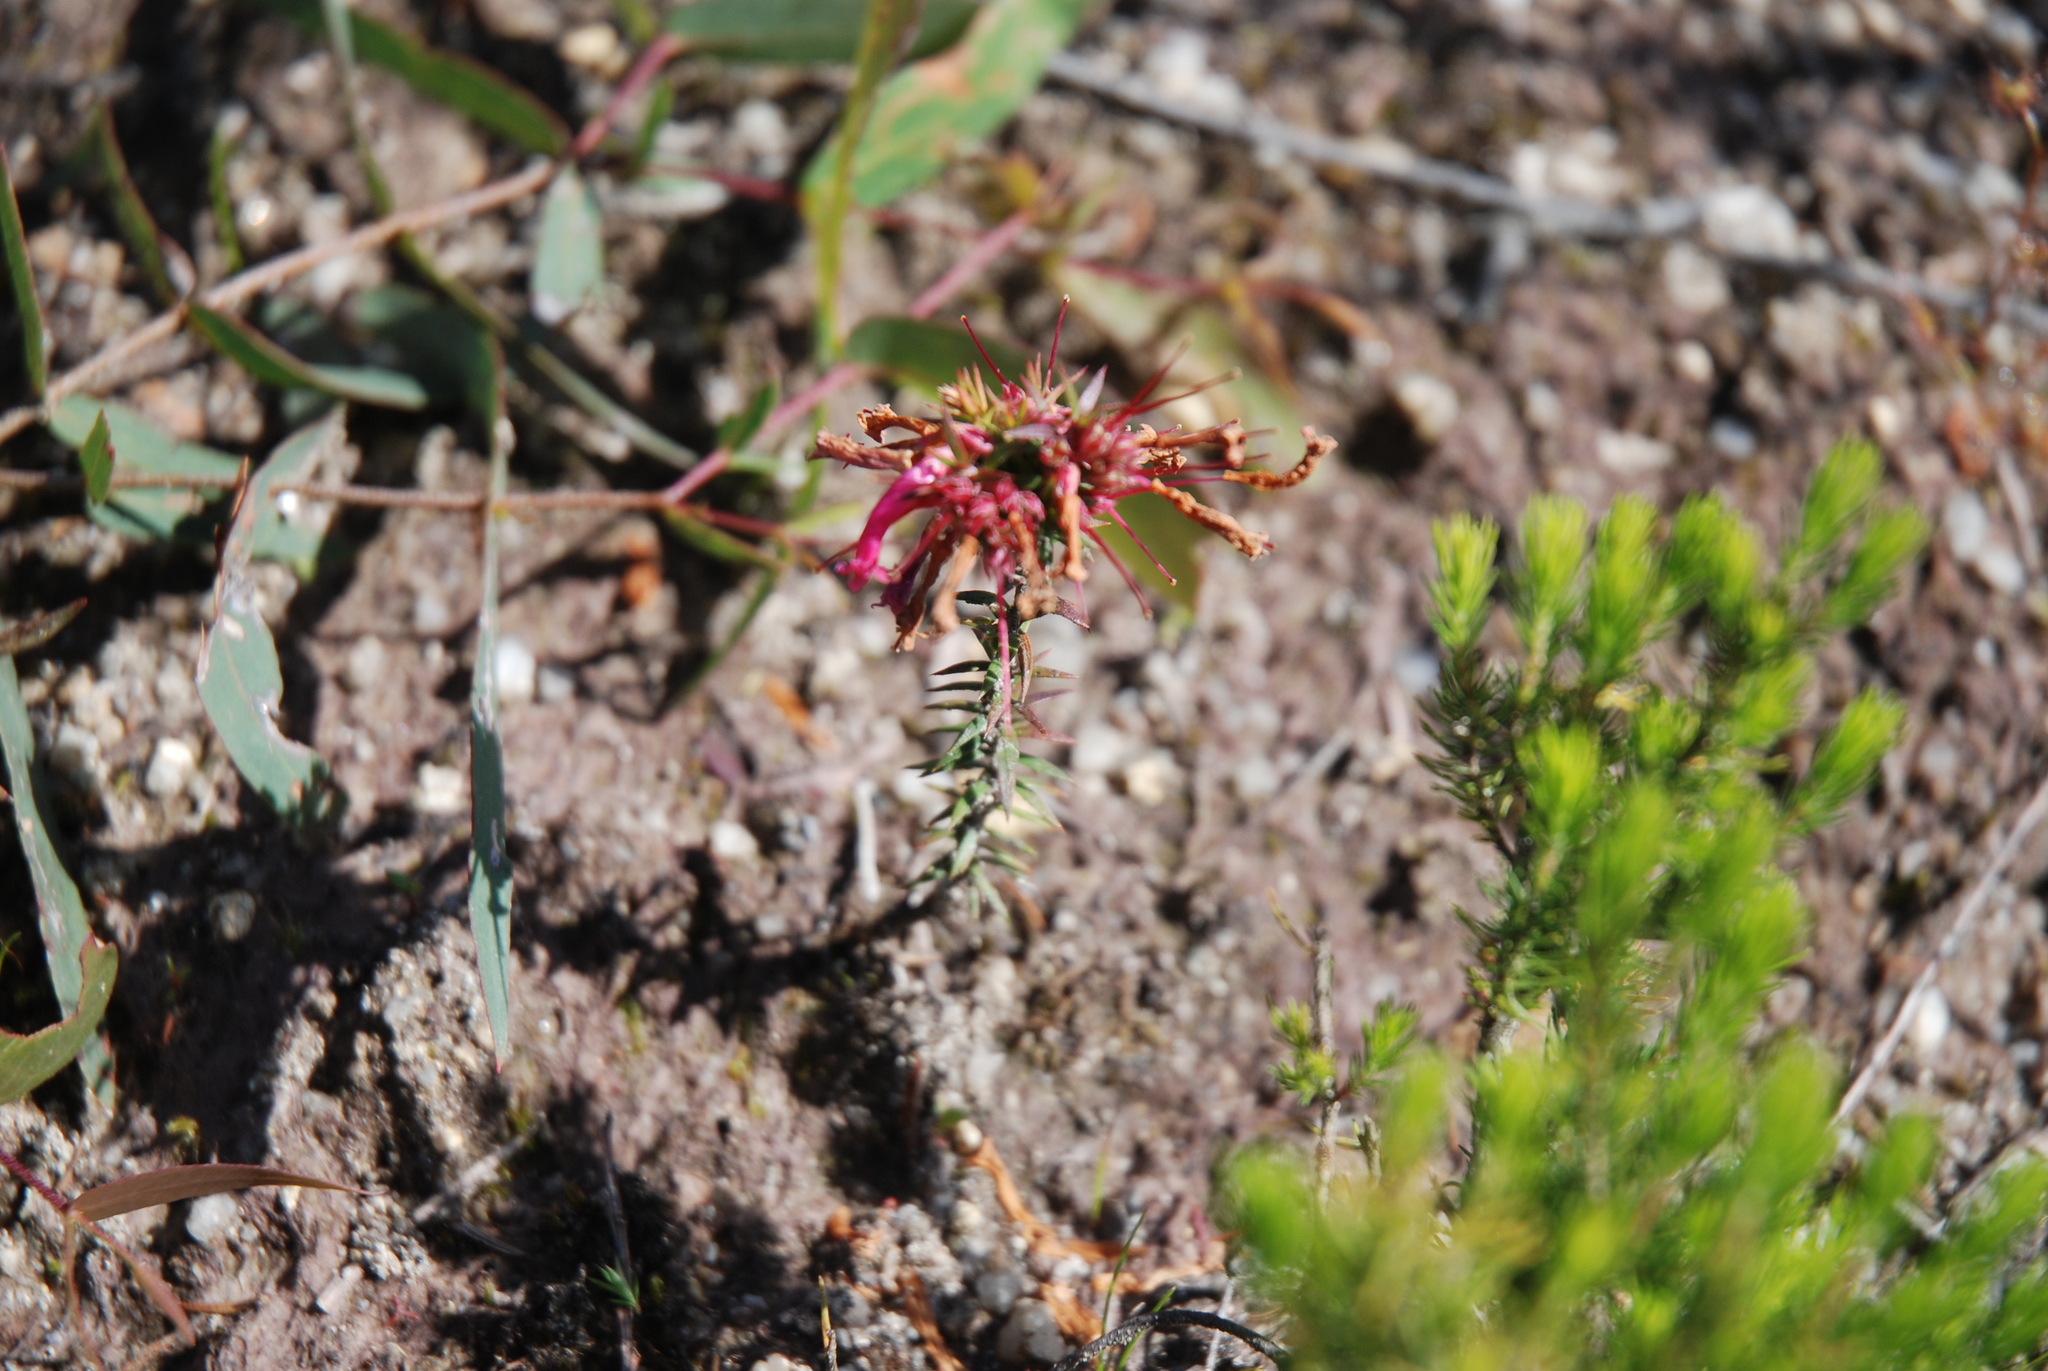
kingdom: Plantae
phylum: Tracheophyta
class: Magnoliopsida
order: Ericales
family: Ericaceae
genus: Epacris
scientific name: Epacris impressa
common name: Common-heath
